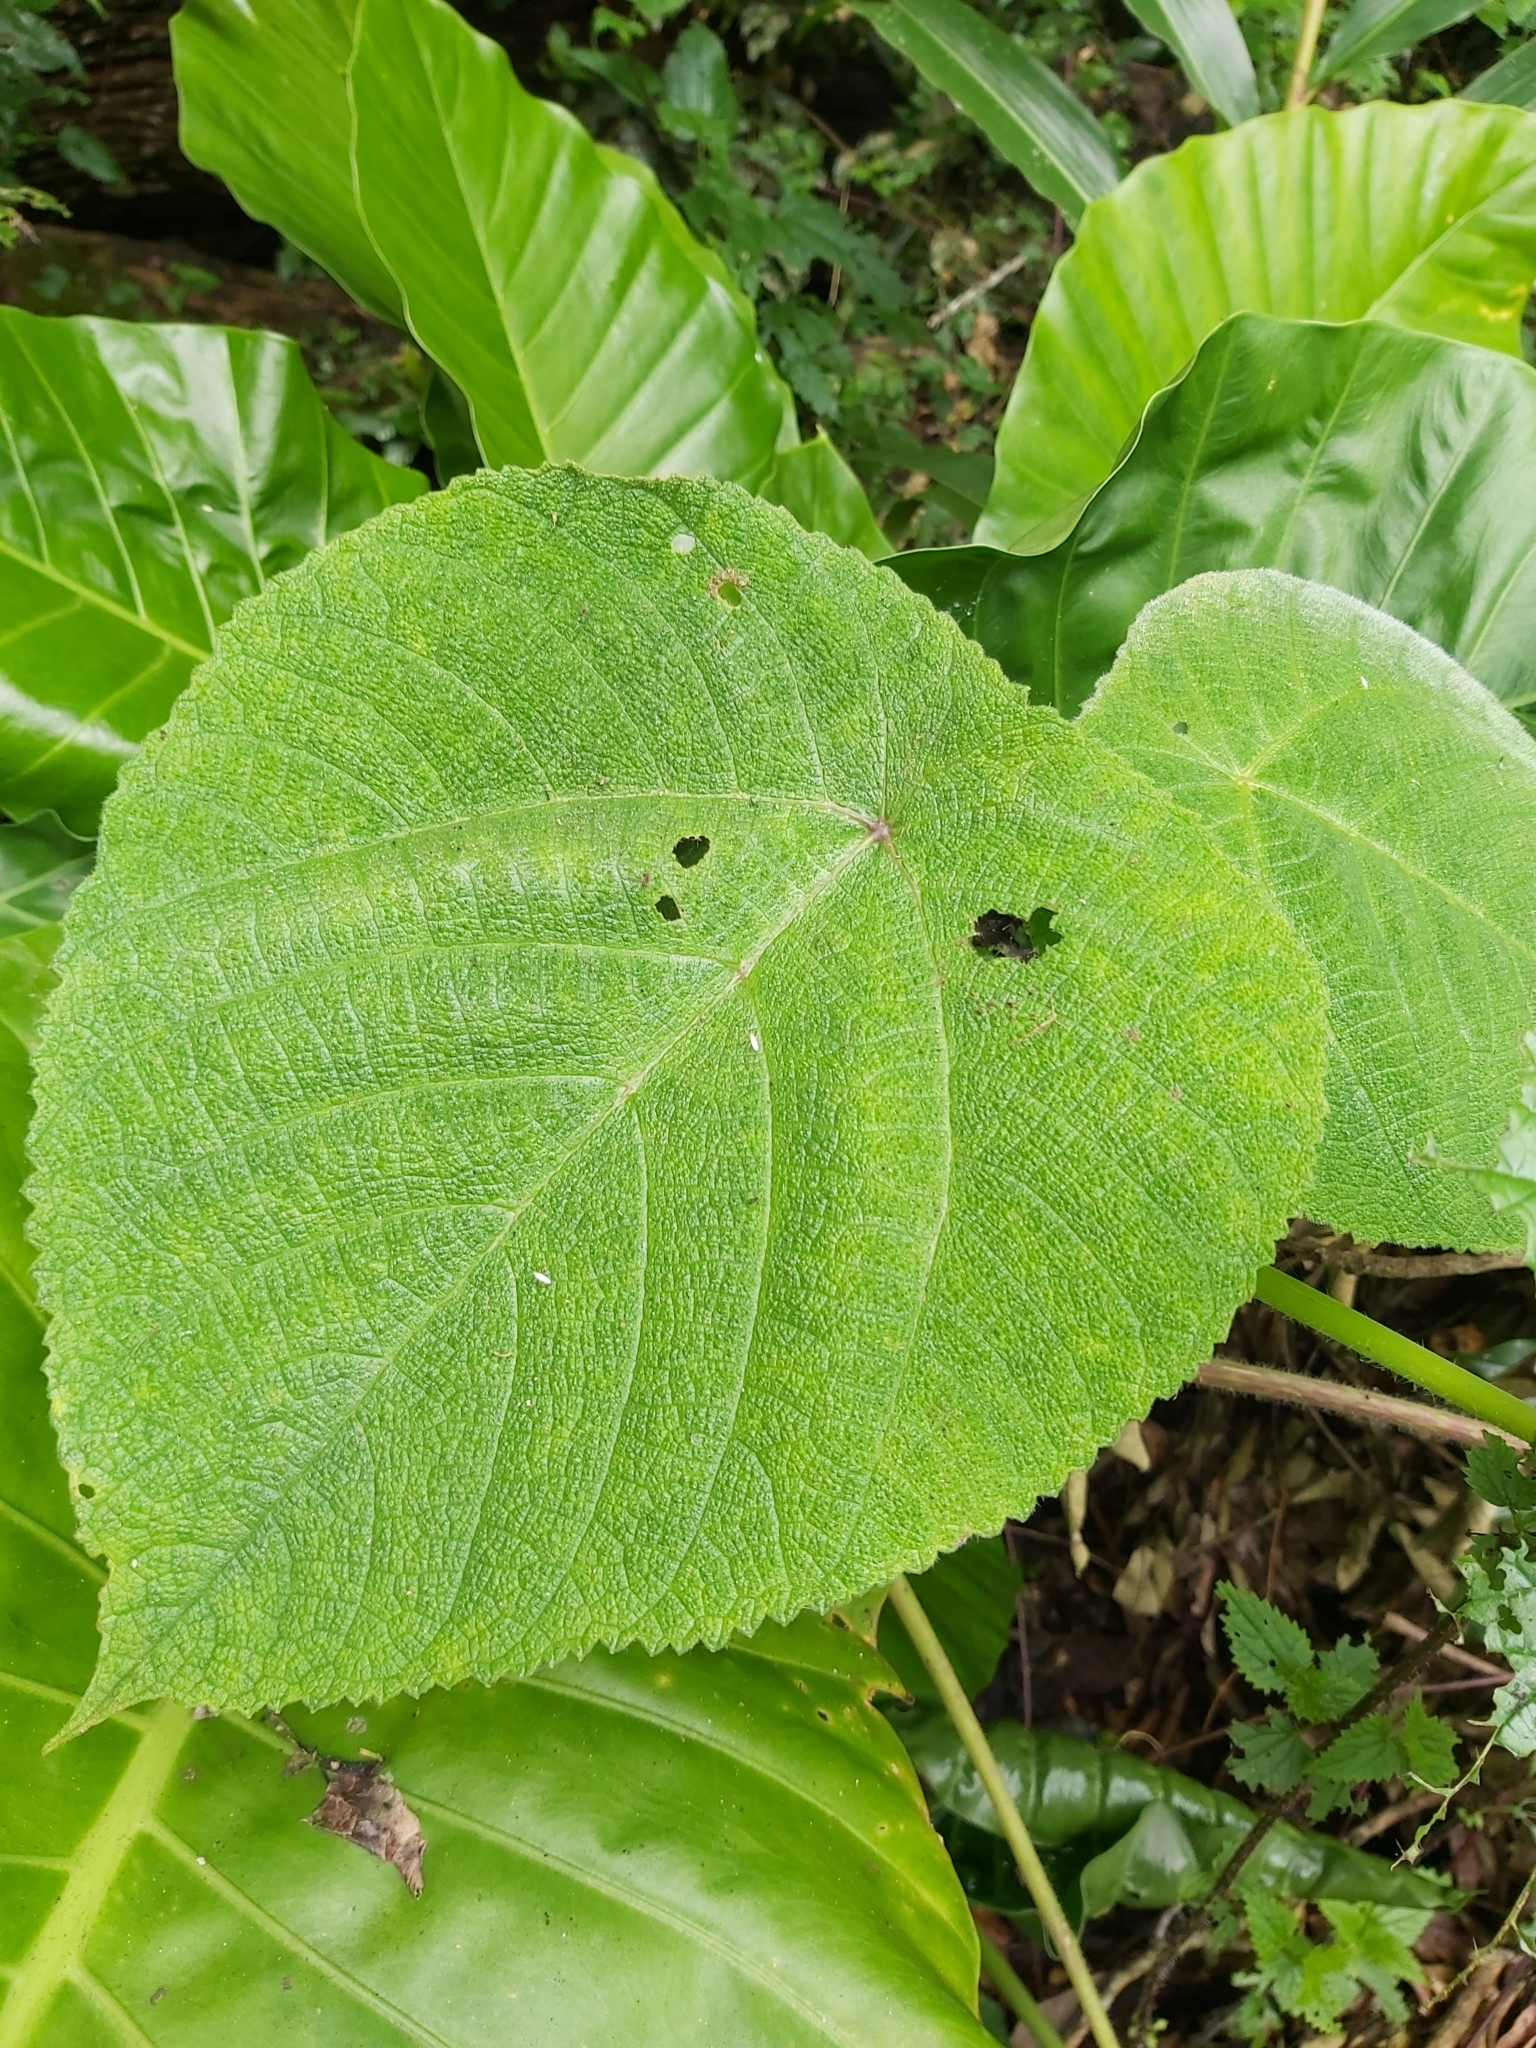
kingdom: Plantae
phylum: Tracheophyta
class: Magnoliopsida
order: Rosales
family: Urticaceae
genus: Dendrocnide
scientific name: Dendrocnide moroides
